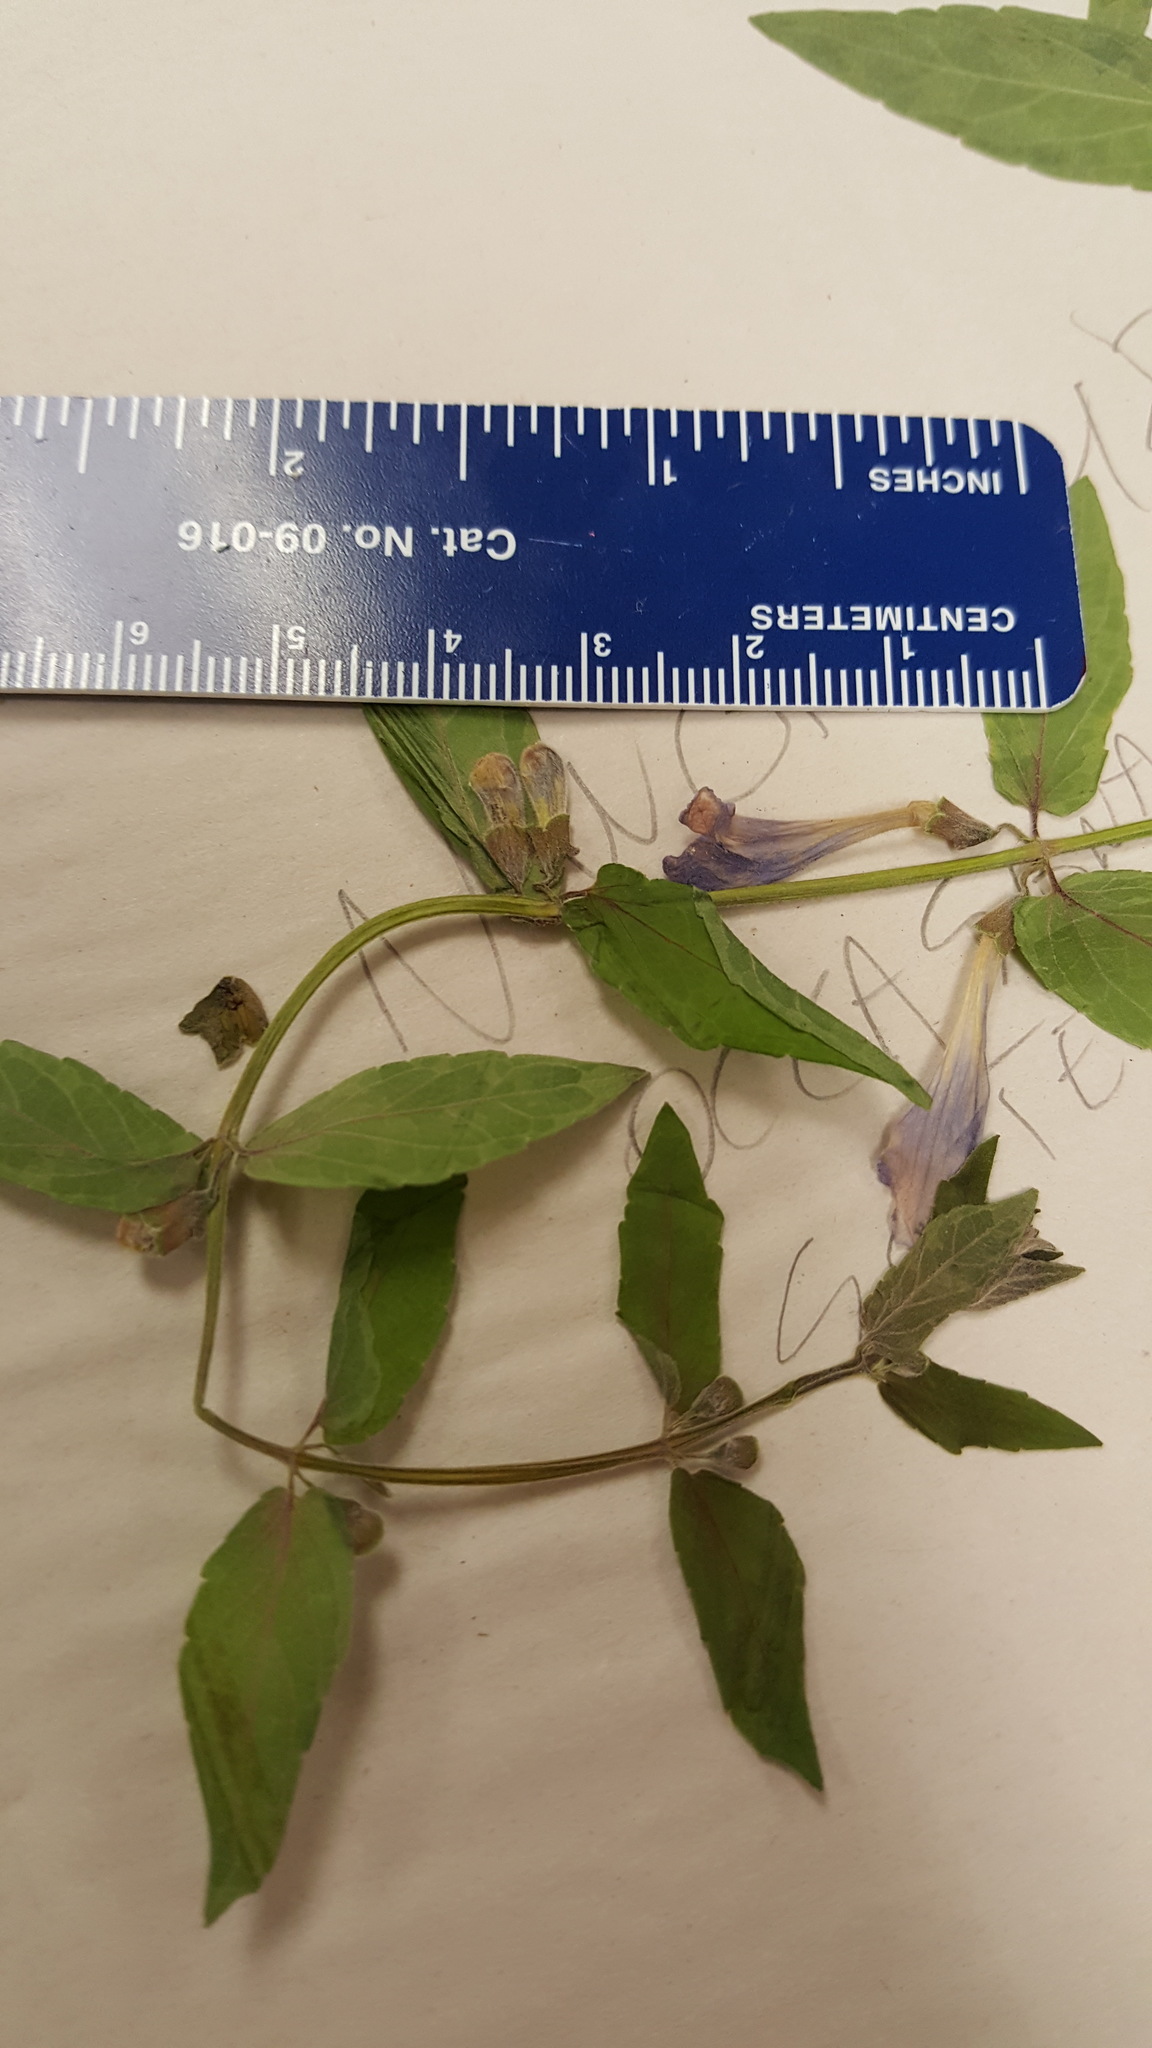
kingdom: Plantae
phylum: Tracheophyta
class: Magnoliopsida
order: Lamiales
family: Lamiaceae
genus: Scutellaria
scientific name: Scutellaria galericulata
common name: Skullcap
